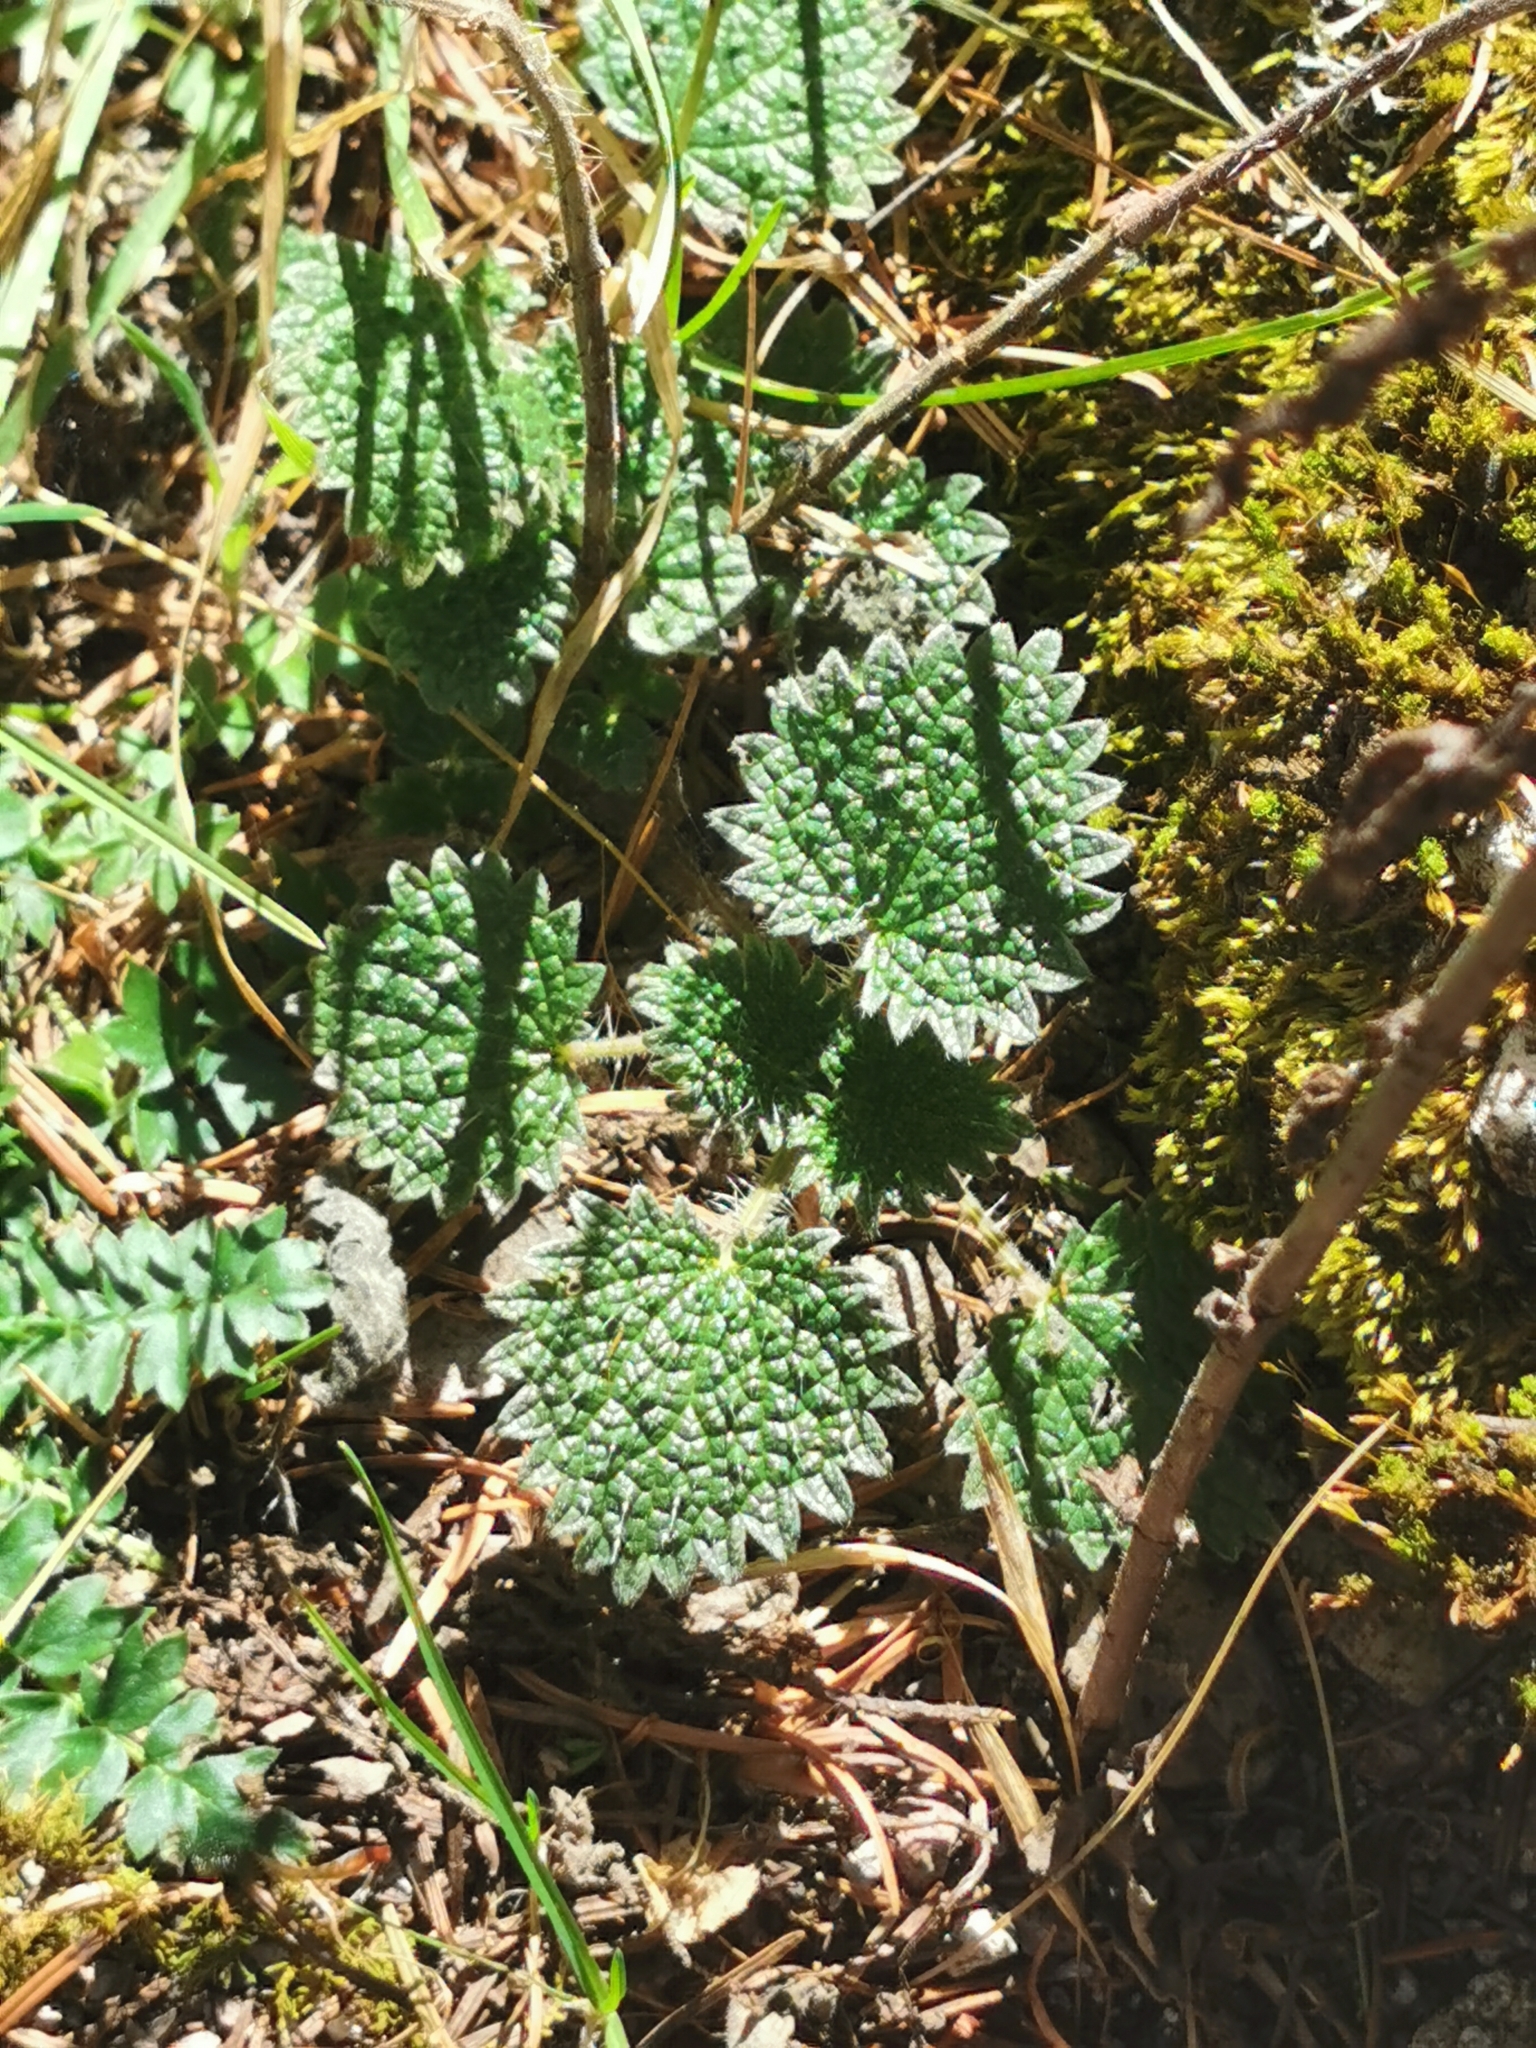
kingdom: Plantae
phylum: Tracheophyta
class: Magnoliopsida
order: Rosales
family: Urticaceae
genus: Urtica
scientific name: Urtica gracilenta
